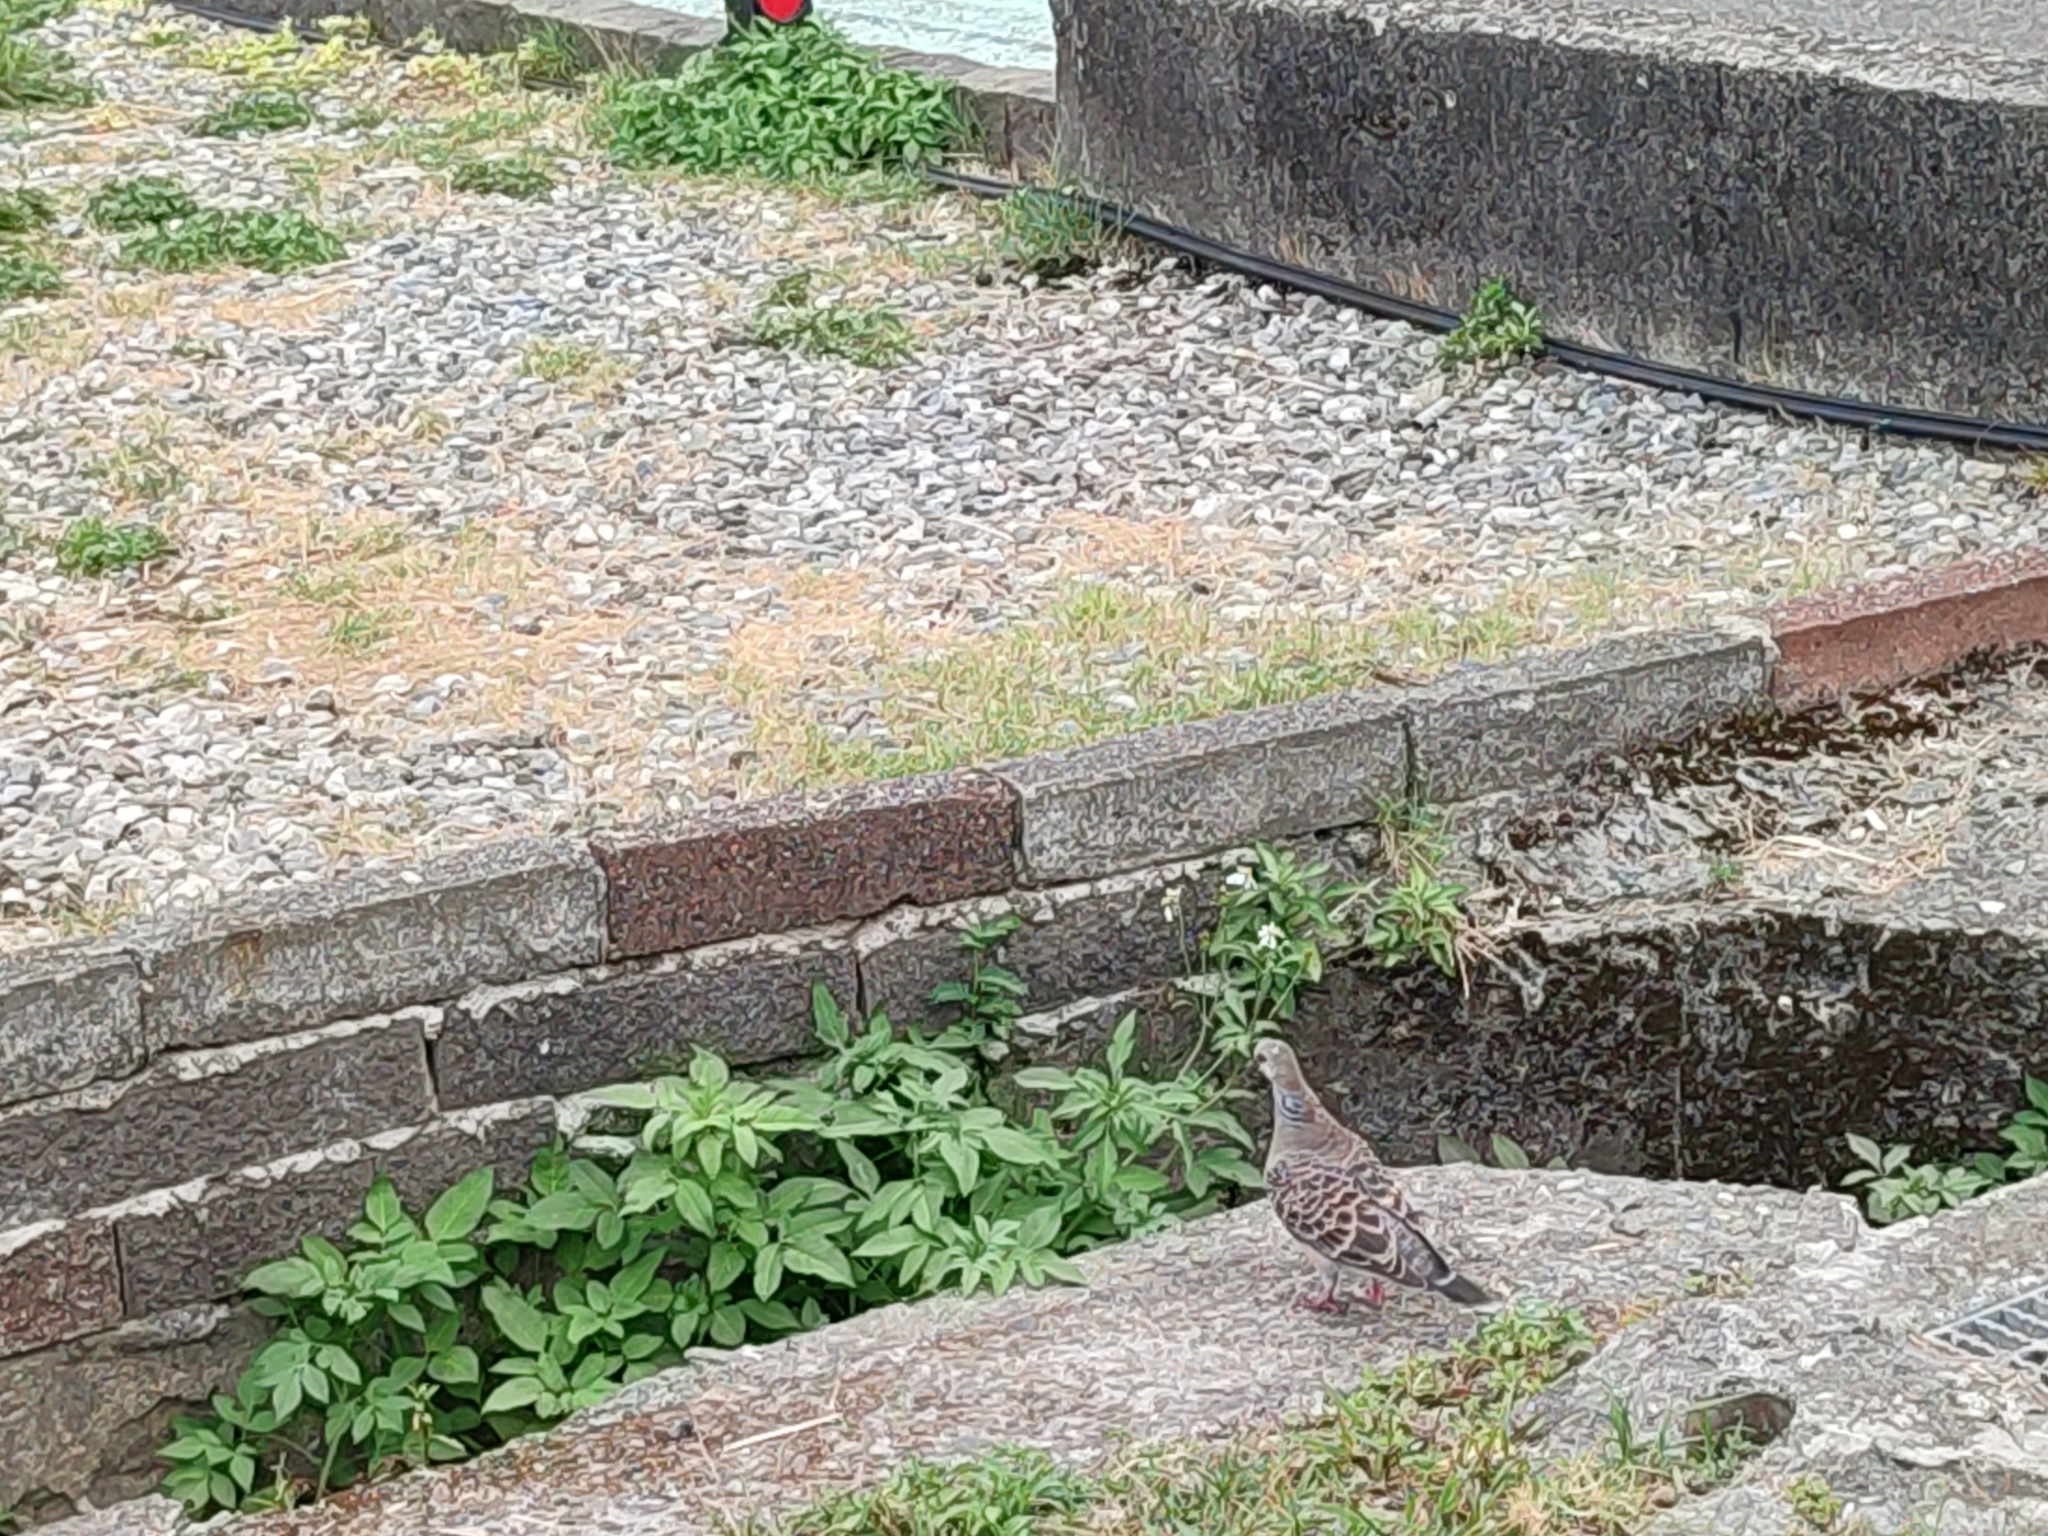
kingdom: Animalia
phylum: Chordata
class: Aves
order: Columbiformes
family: Columbidae
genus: Streptopelia
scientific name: Streptopelia orientalis
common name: Oriental turtle dove
